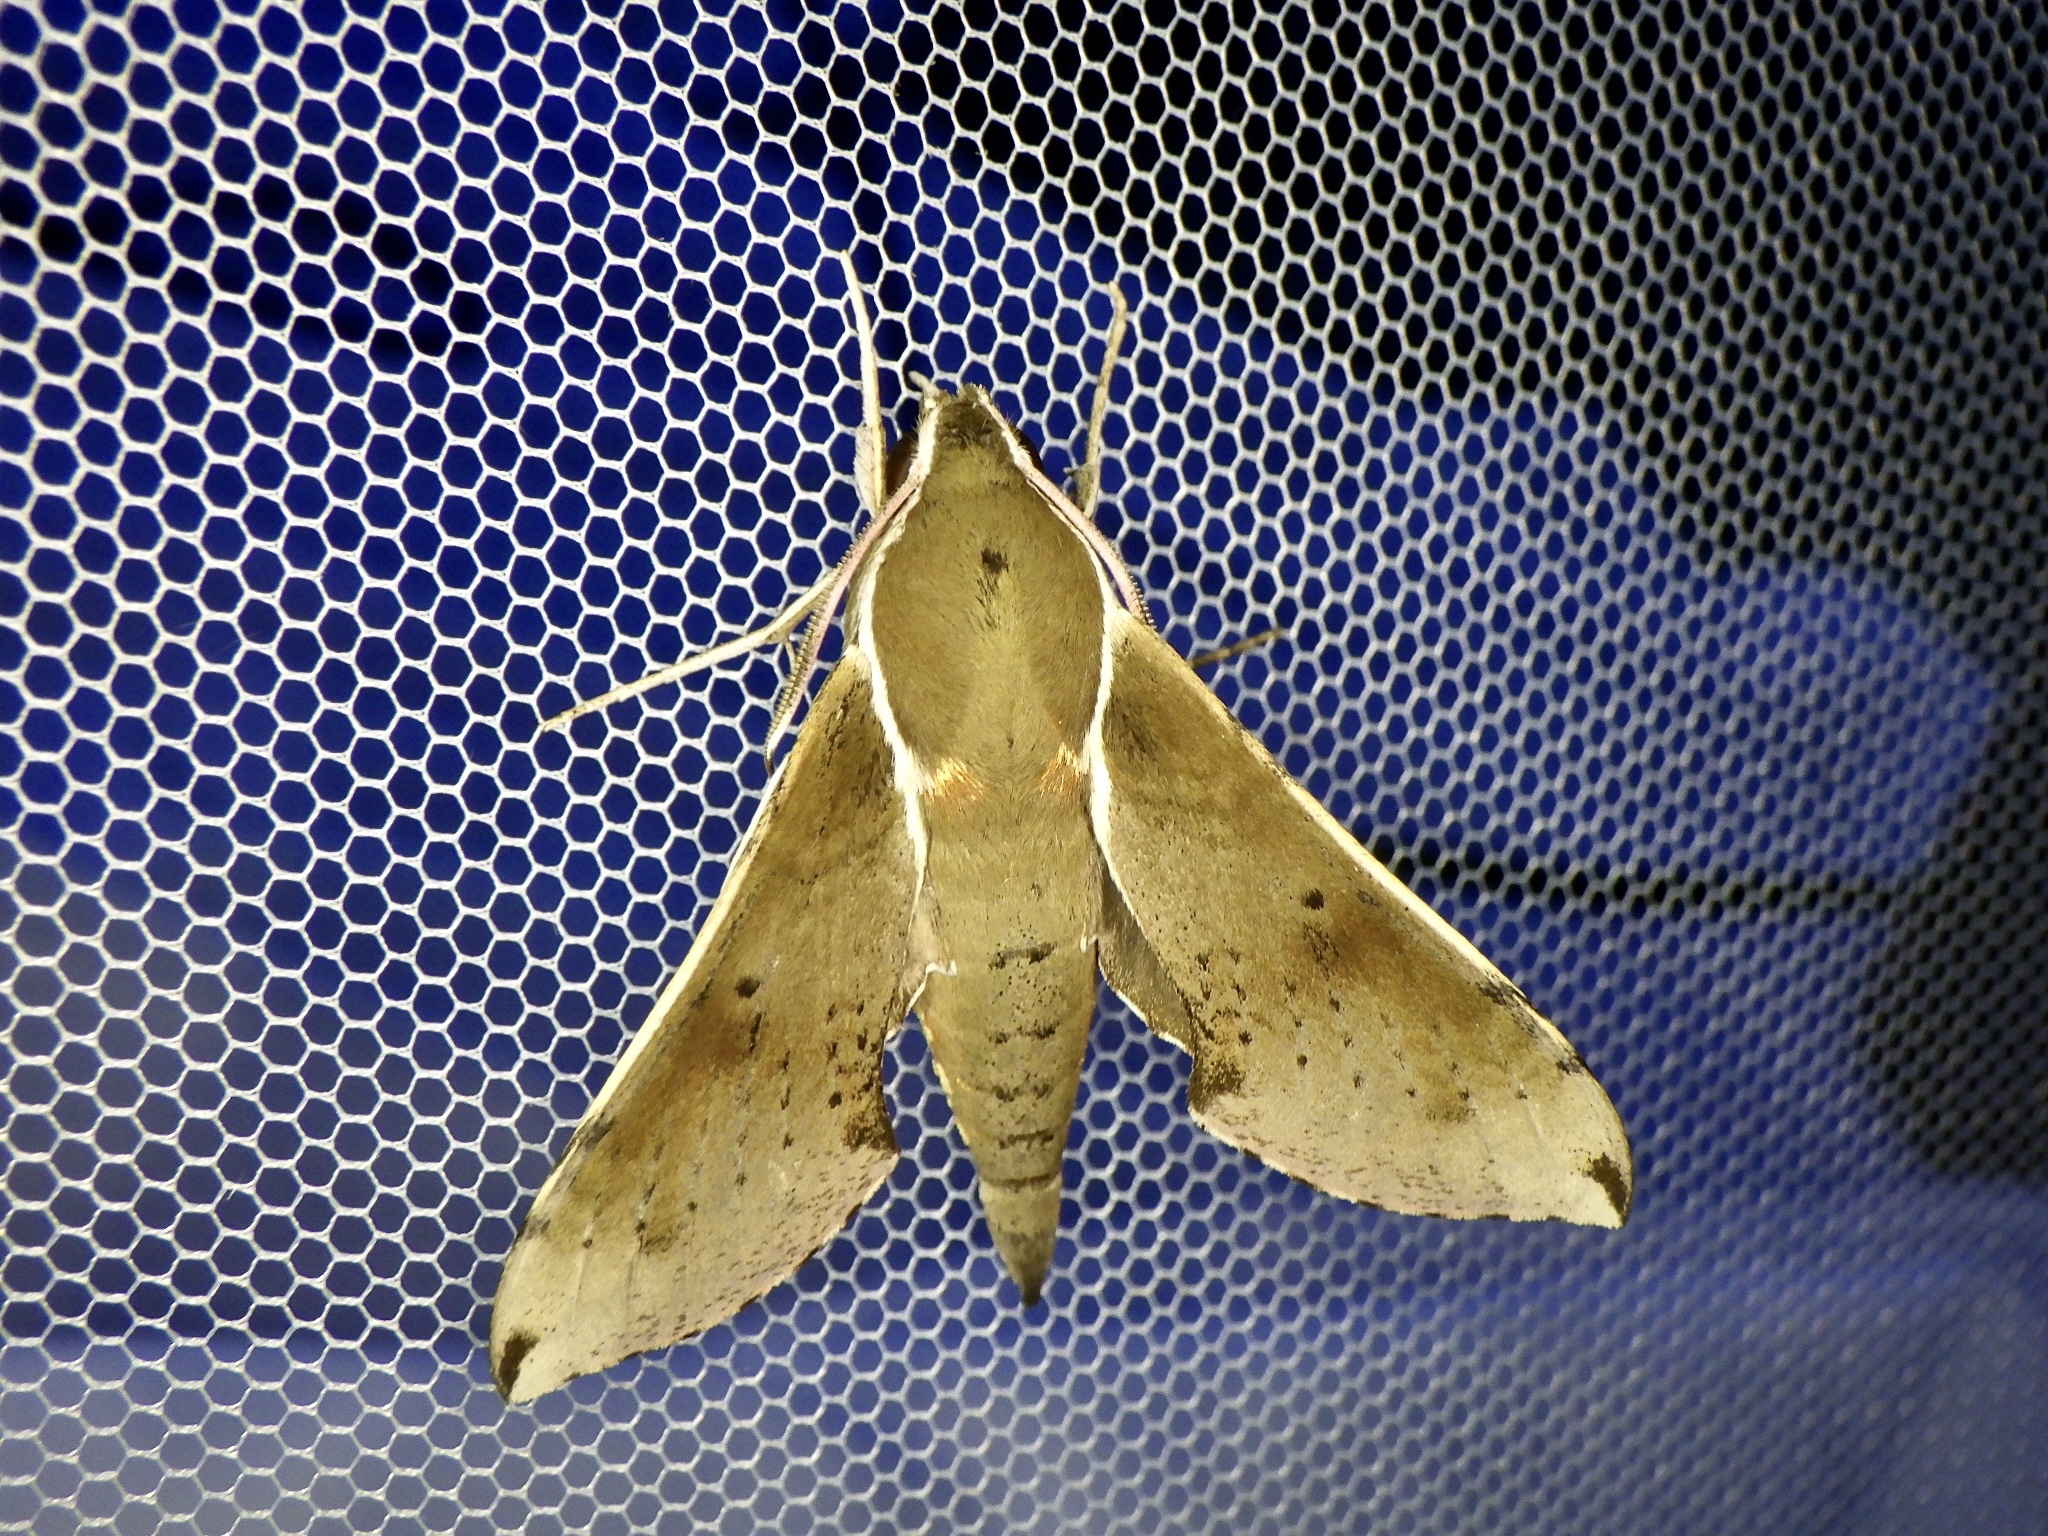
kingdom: Animalia
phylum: Arthropoda
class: Insecta
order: Lepidoptera
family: Sphingidae
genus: Rhagastis
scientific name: Rhagastis mongoliana
